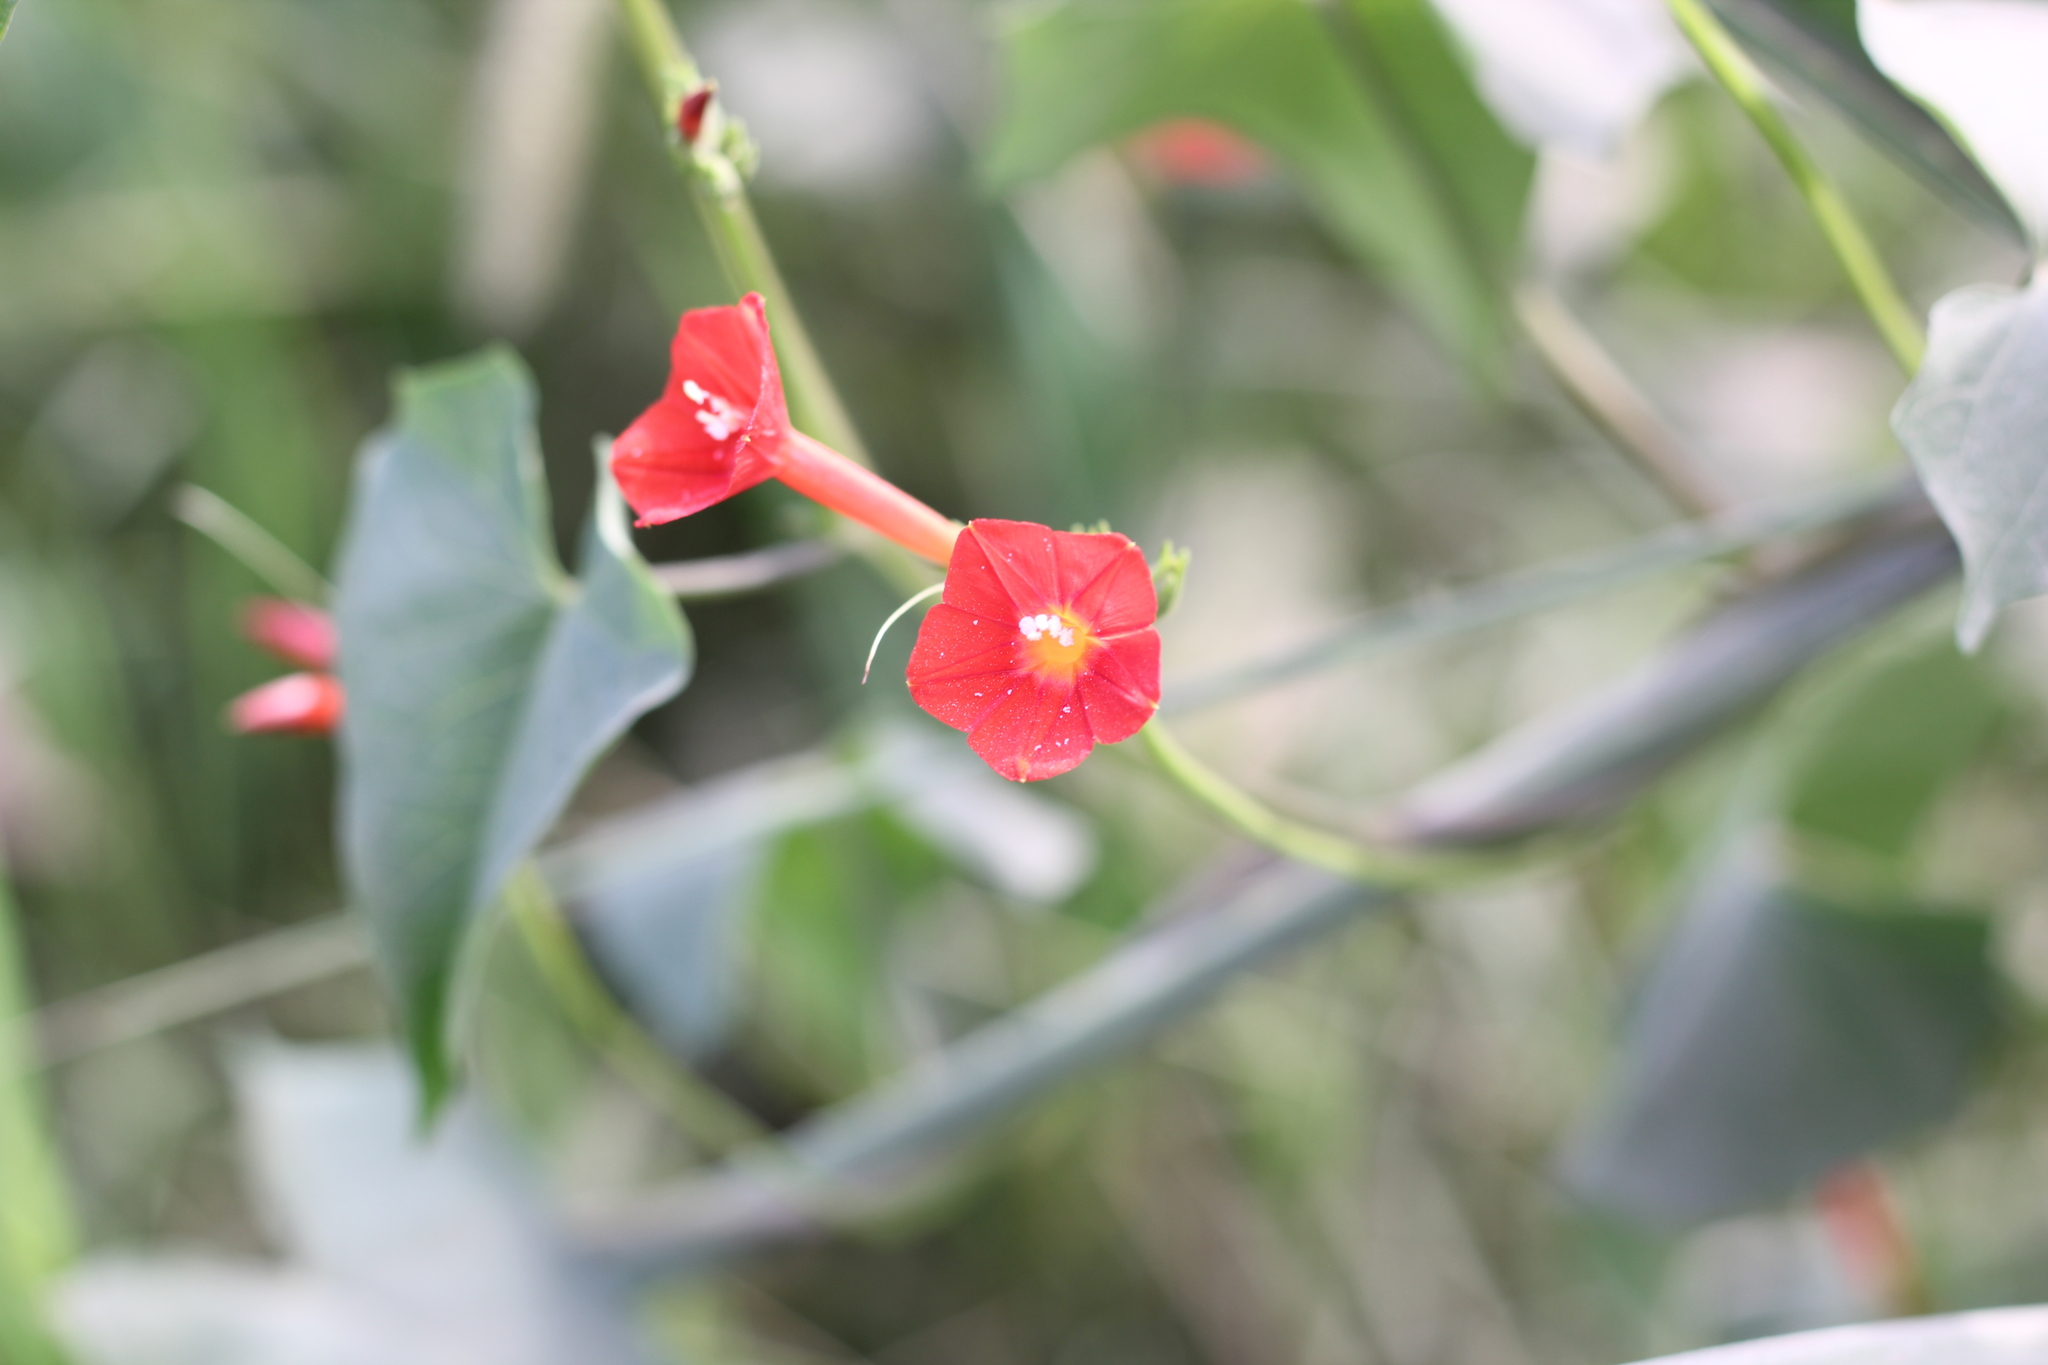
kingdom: Plantae
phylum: Tracheophyta
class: Magnoliopsida
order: Solanales
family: Convolvulaceae
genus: Ipomoea
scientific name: Ipomoea indivisa
